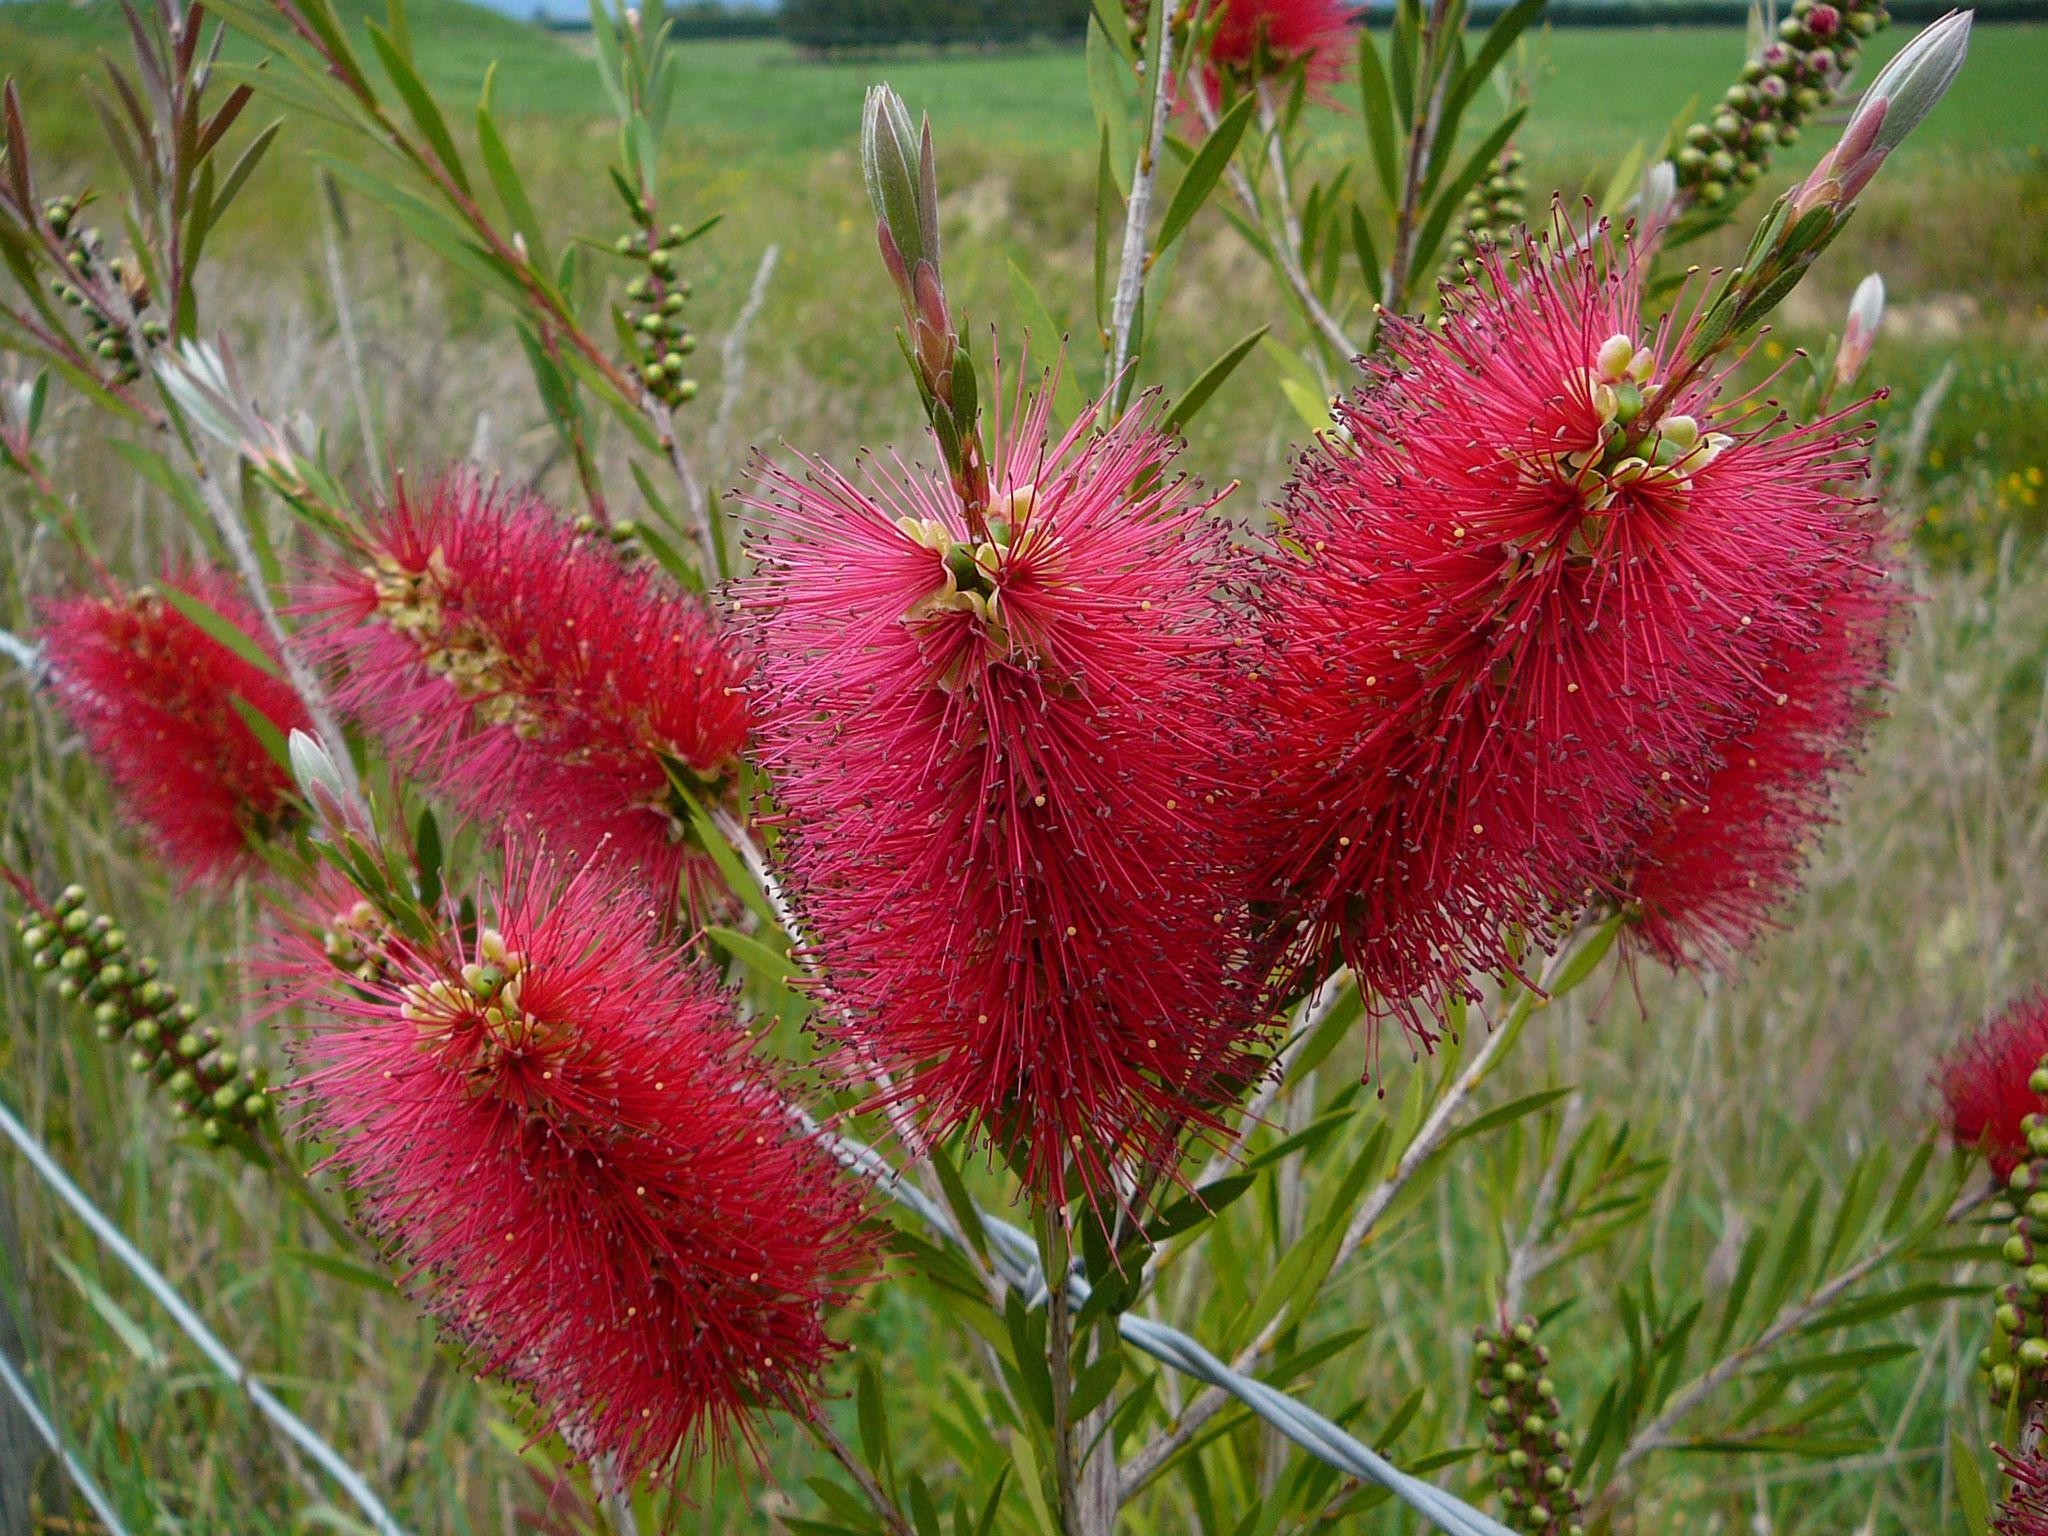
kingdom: Plantae
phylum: Tracheophyta
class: Magnoliopsida
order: Myrtales
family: Myrtaceae
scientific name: Myrtaceae
